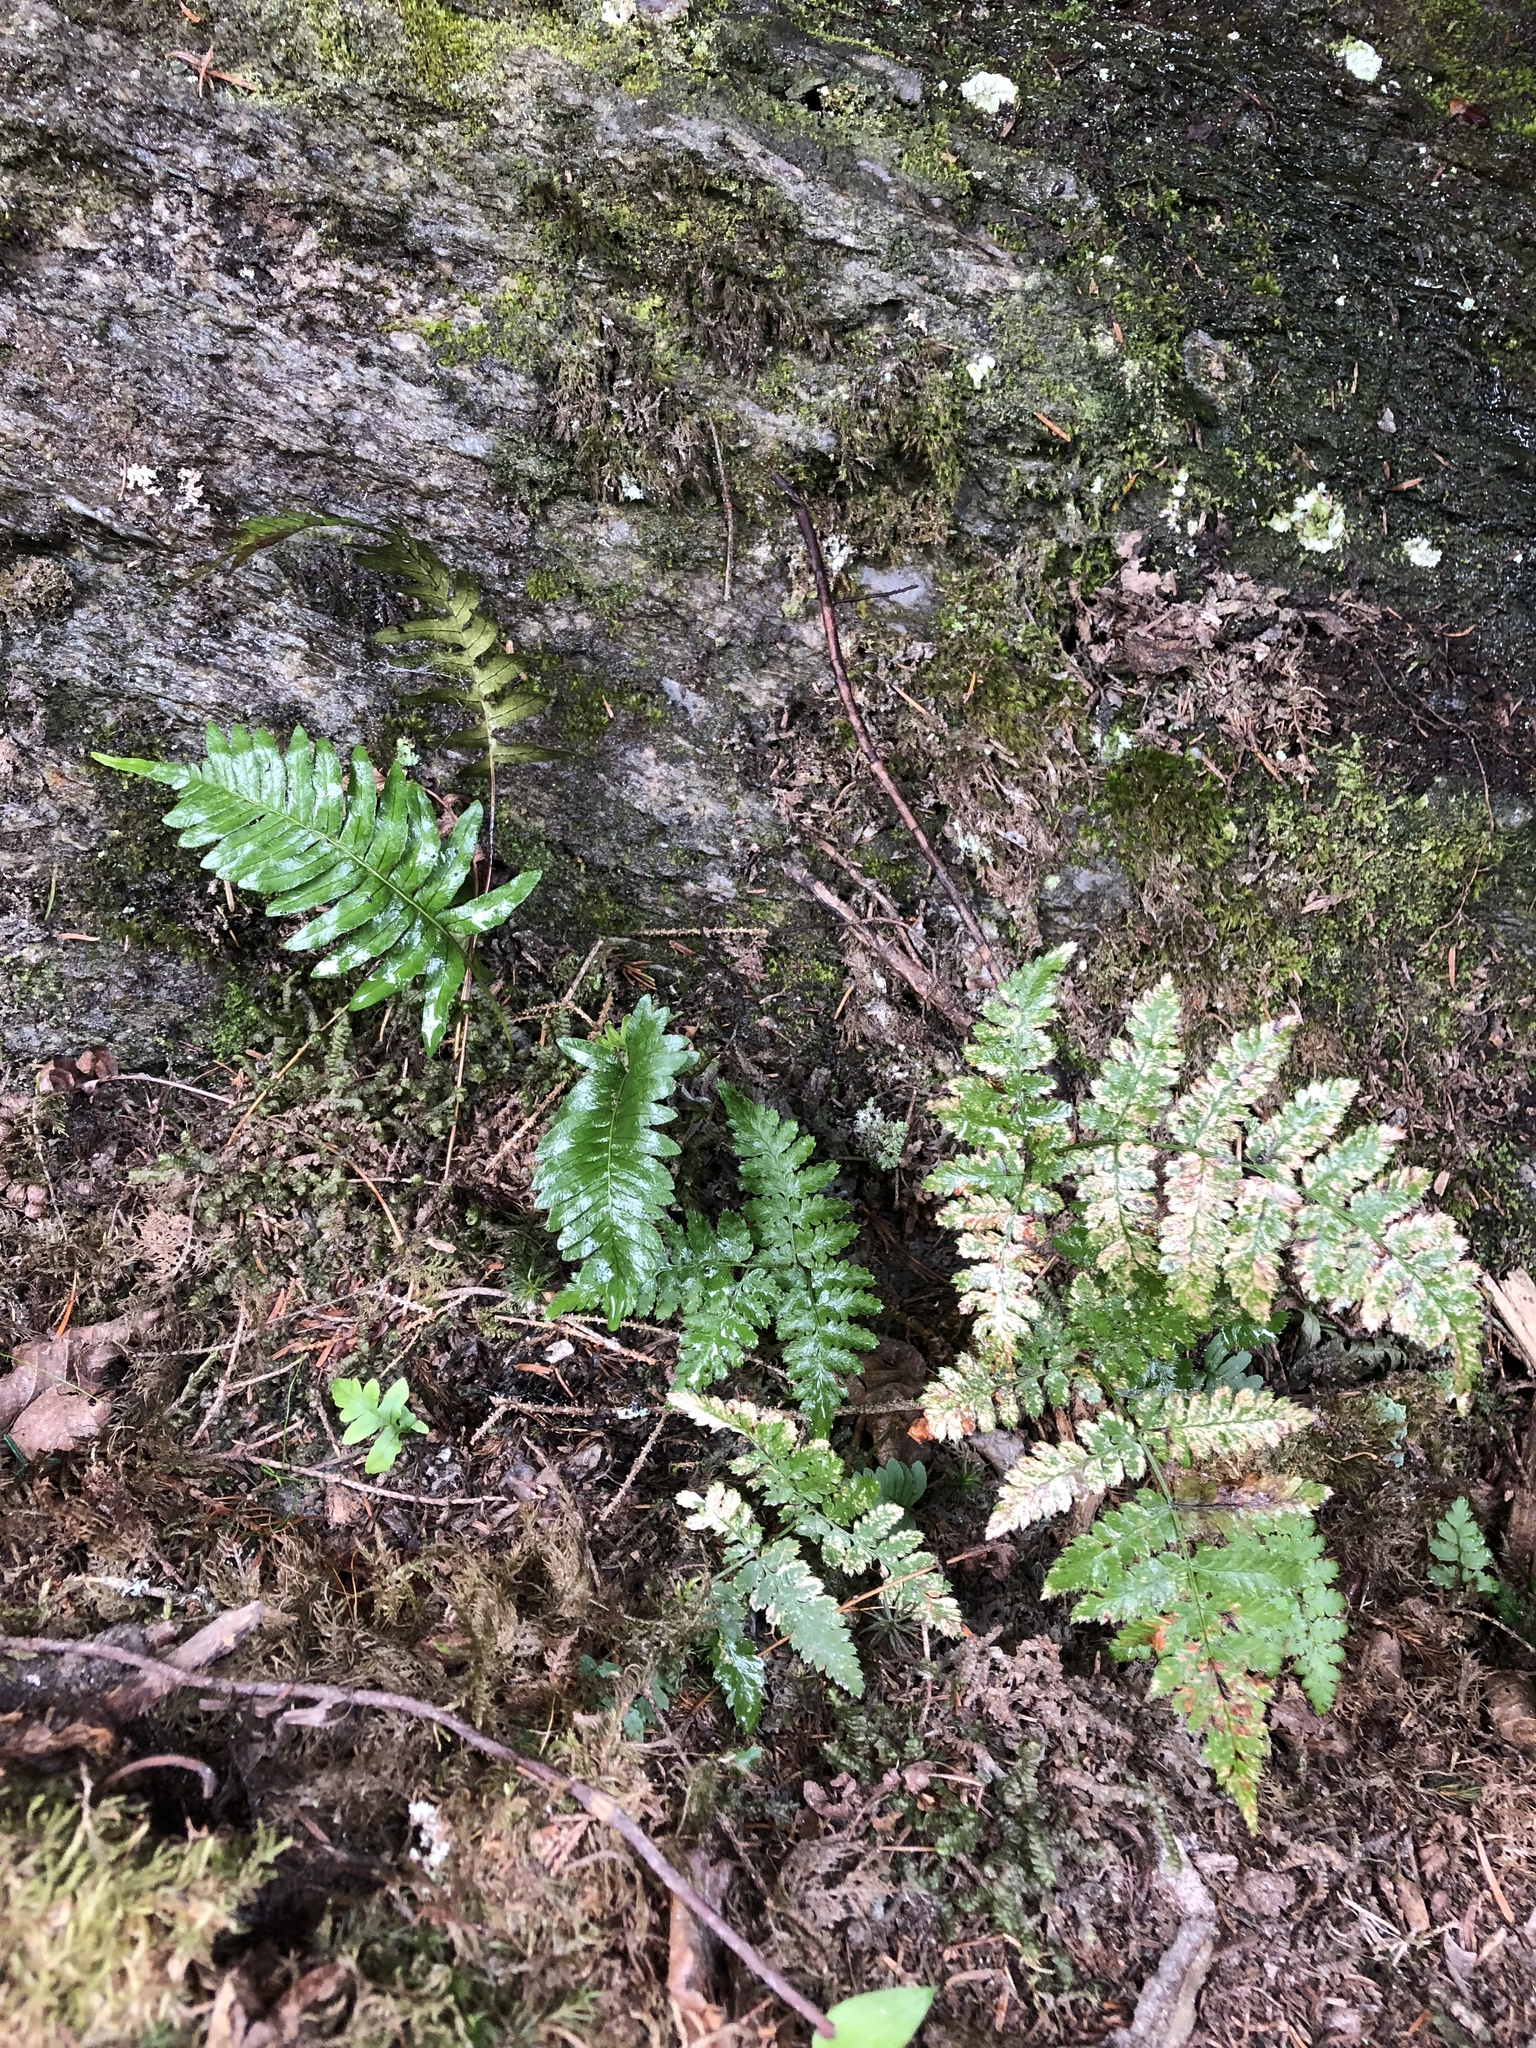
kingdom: Plantae
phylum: Tracheophyta
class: Polypodiopsida
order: Polypodiales
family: Polypodiaceae
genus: Polypodium
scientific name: Polypodium virginianum
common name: American wall fern
